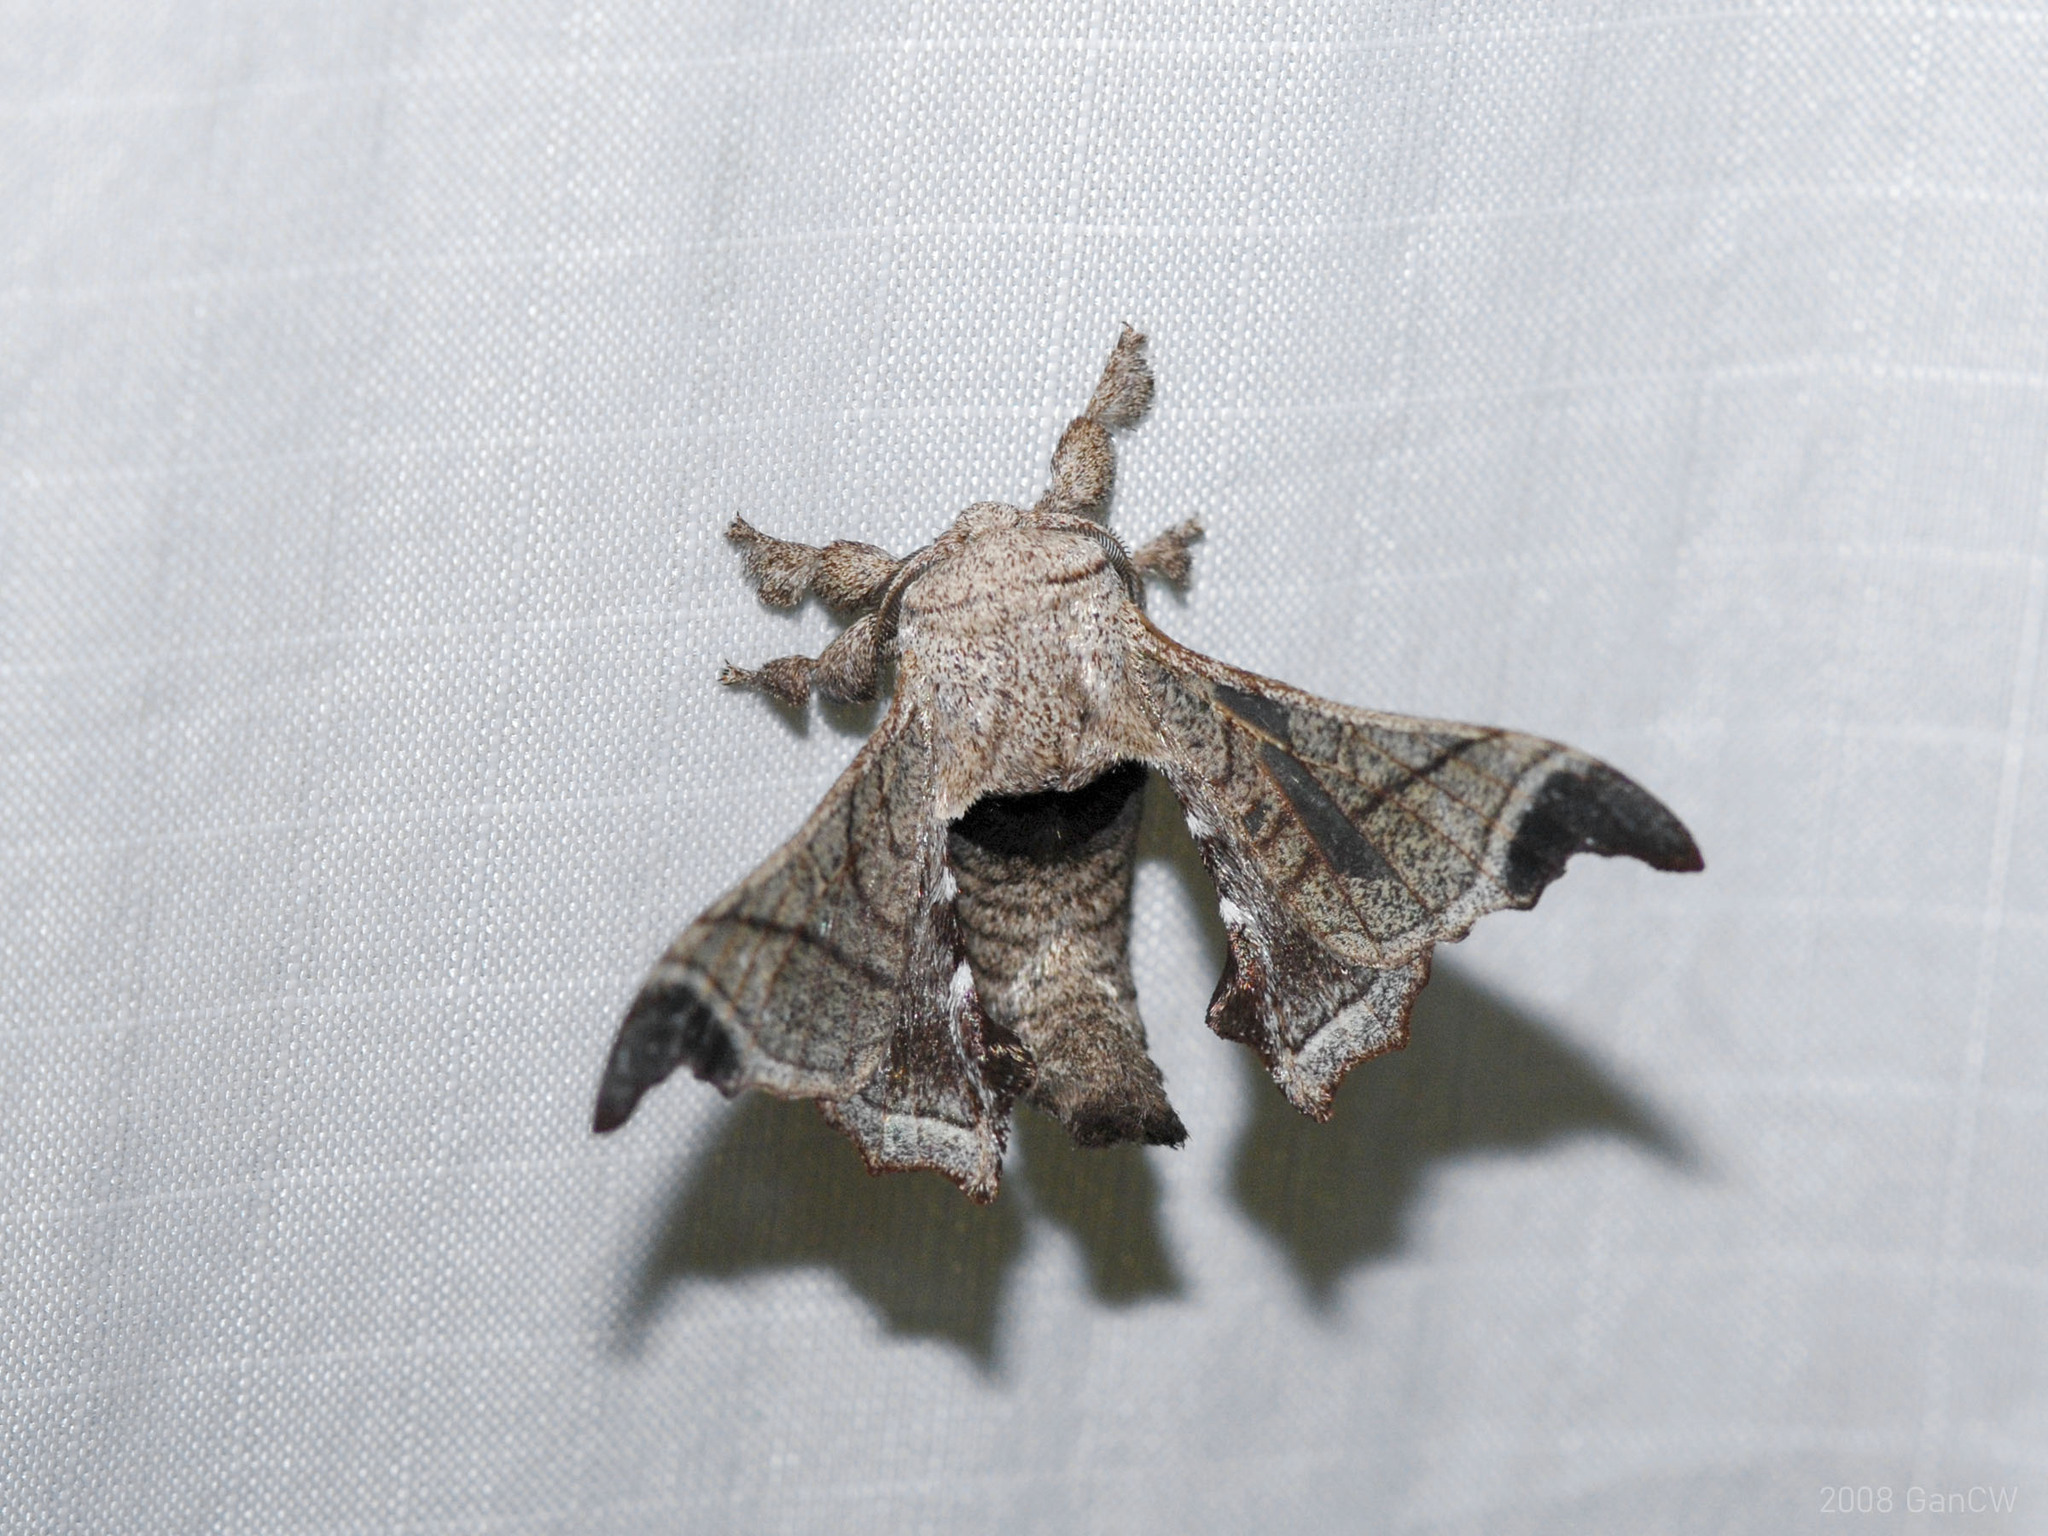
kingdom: Animalia
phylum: Arthropoda
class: Insecta
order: Lepidoptera
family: Bombycidae
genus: Bombyx
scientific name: Bombyx incomposita
